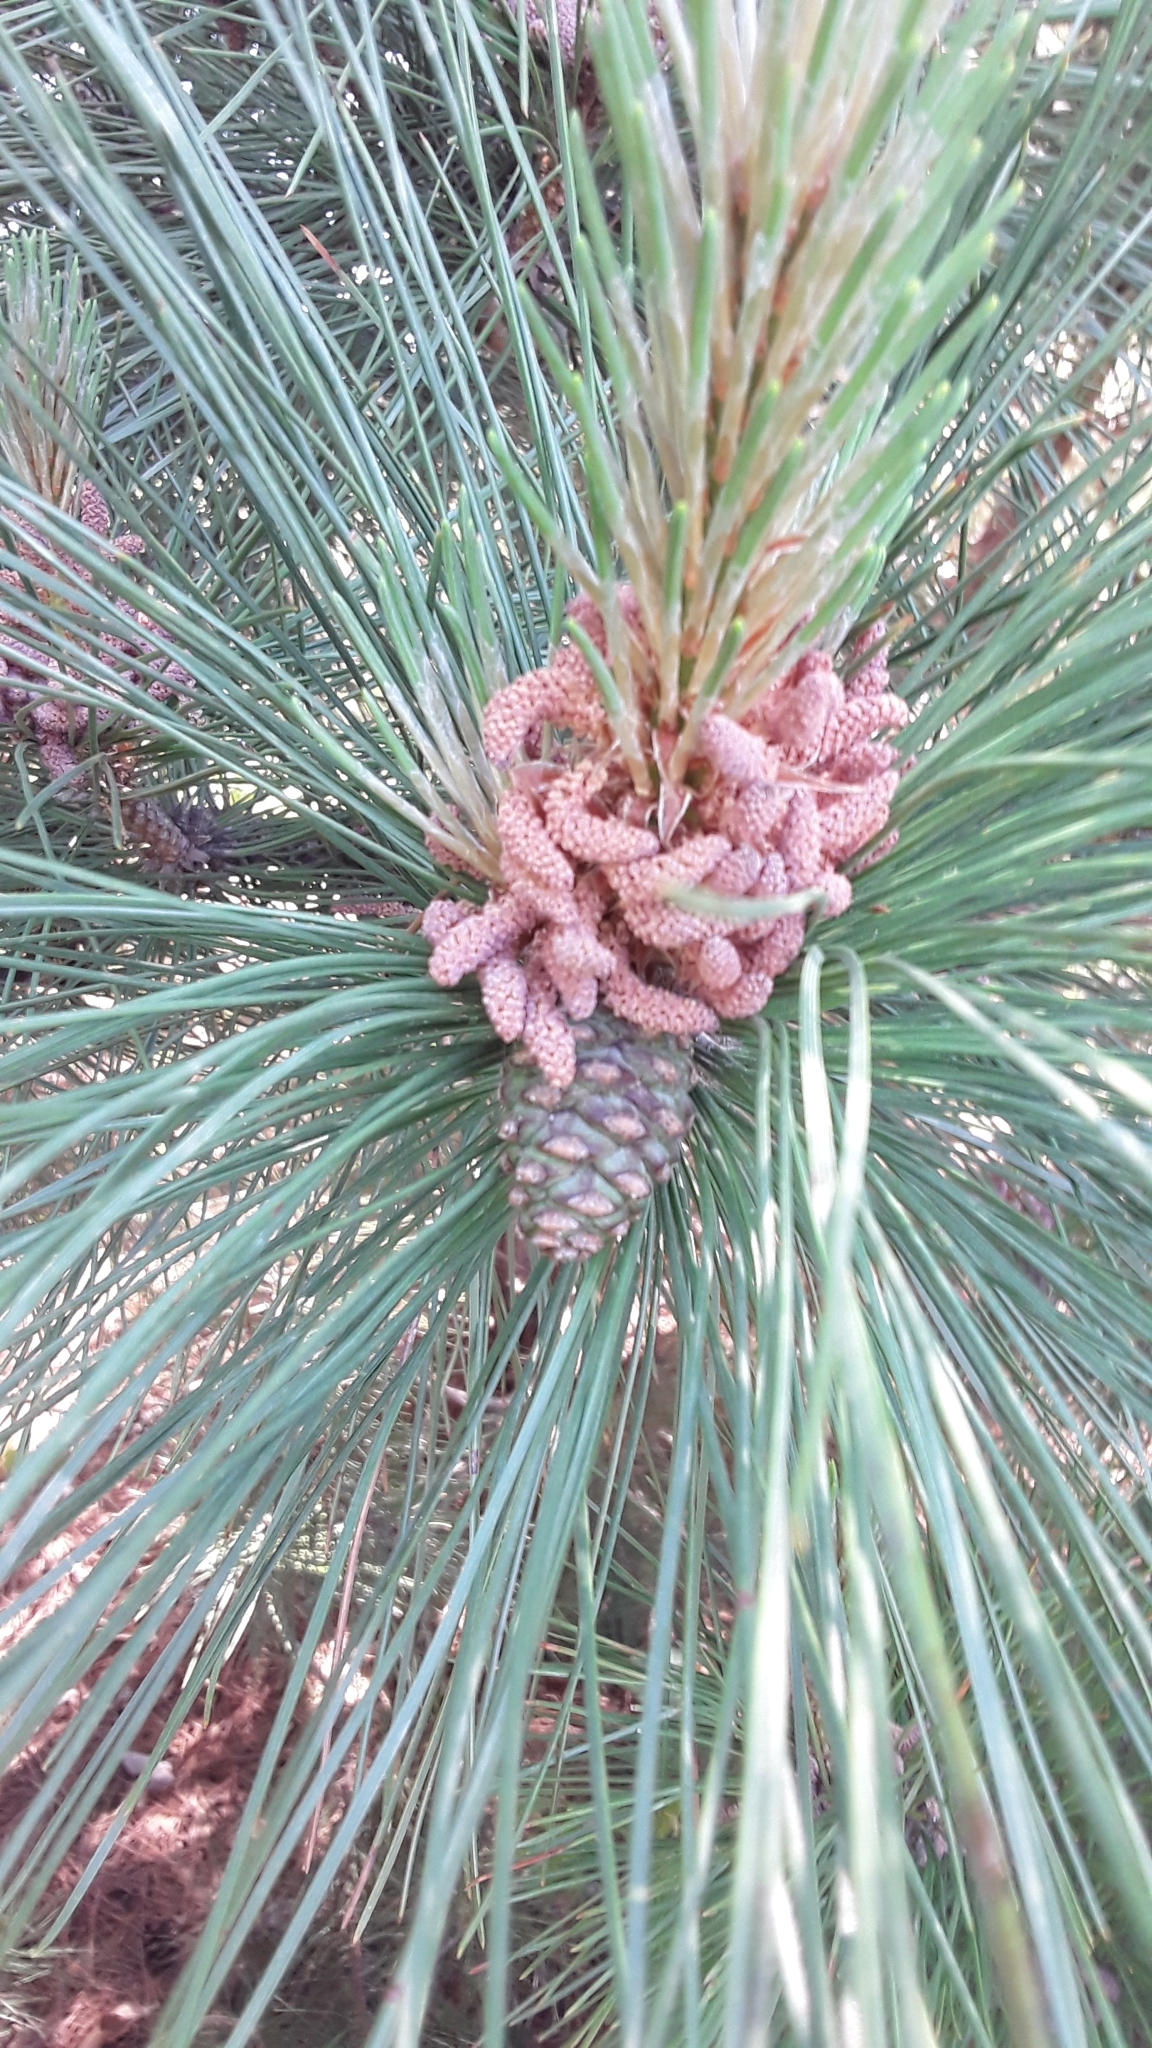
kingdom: Plantae
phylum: Tracheophyta
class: Pinopsida
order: Pinales
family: Pinaceae
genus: Pinus
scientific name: Pinus resinosa
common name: Norway pine
